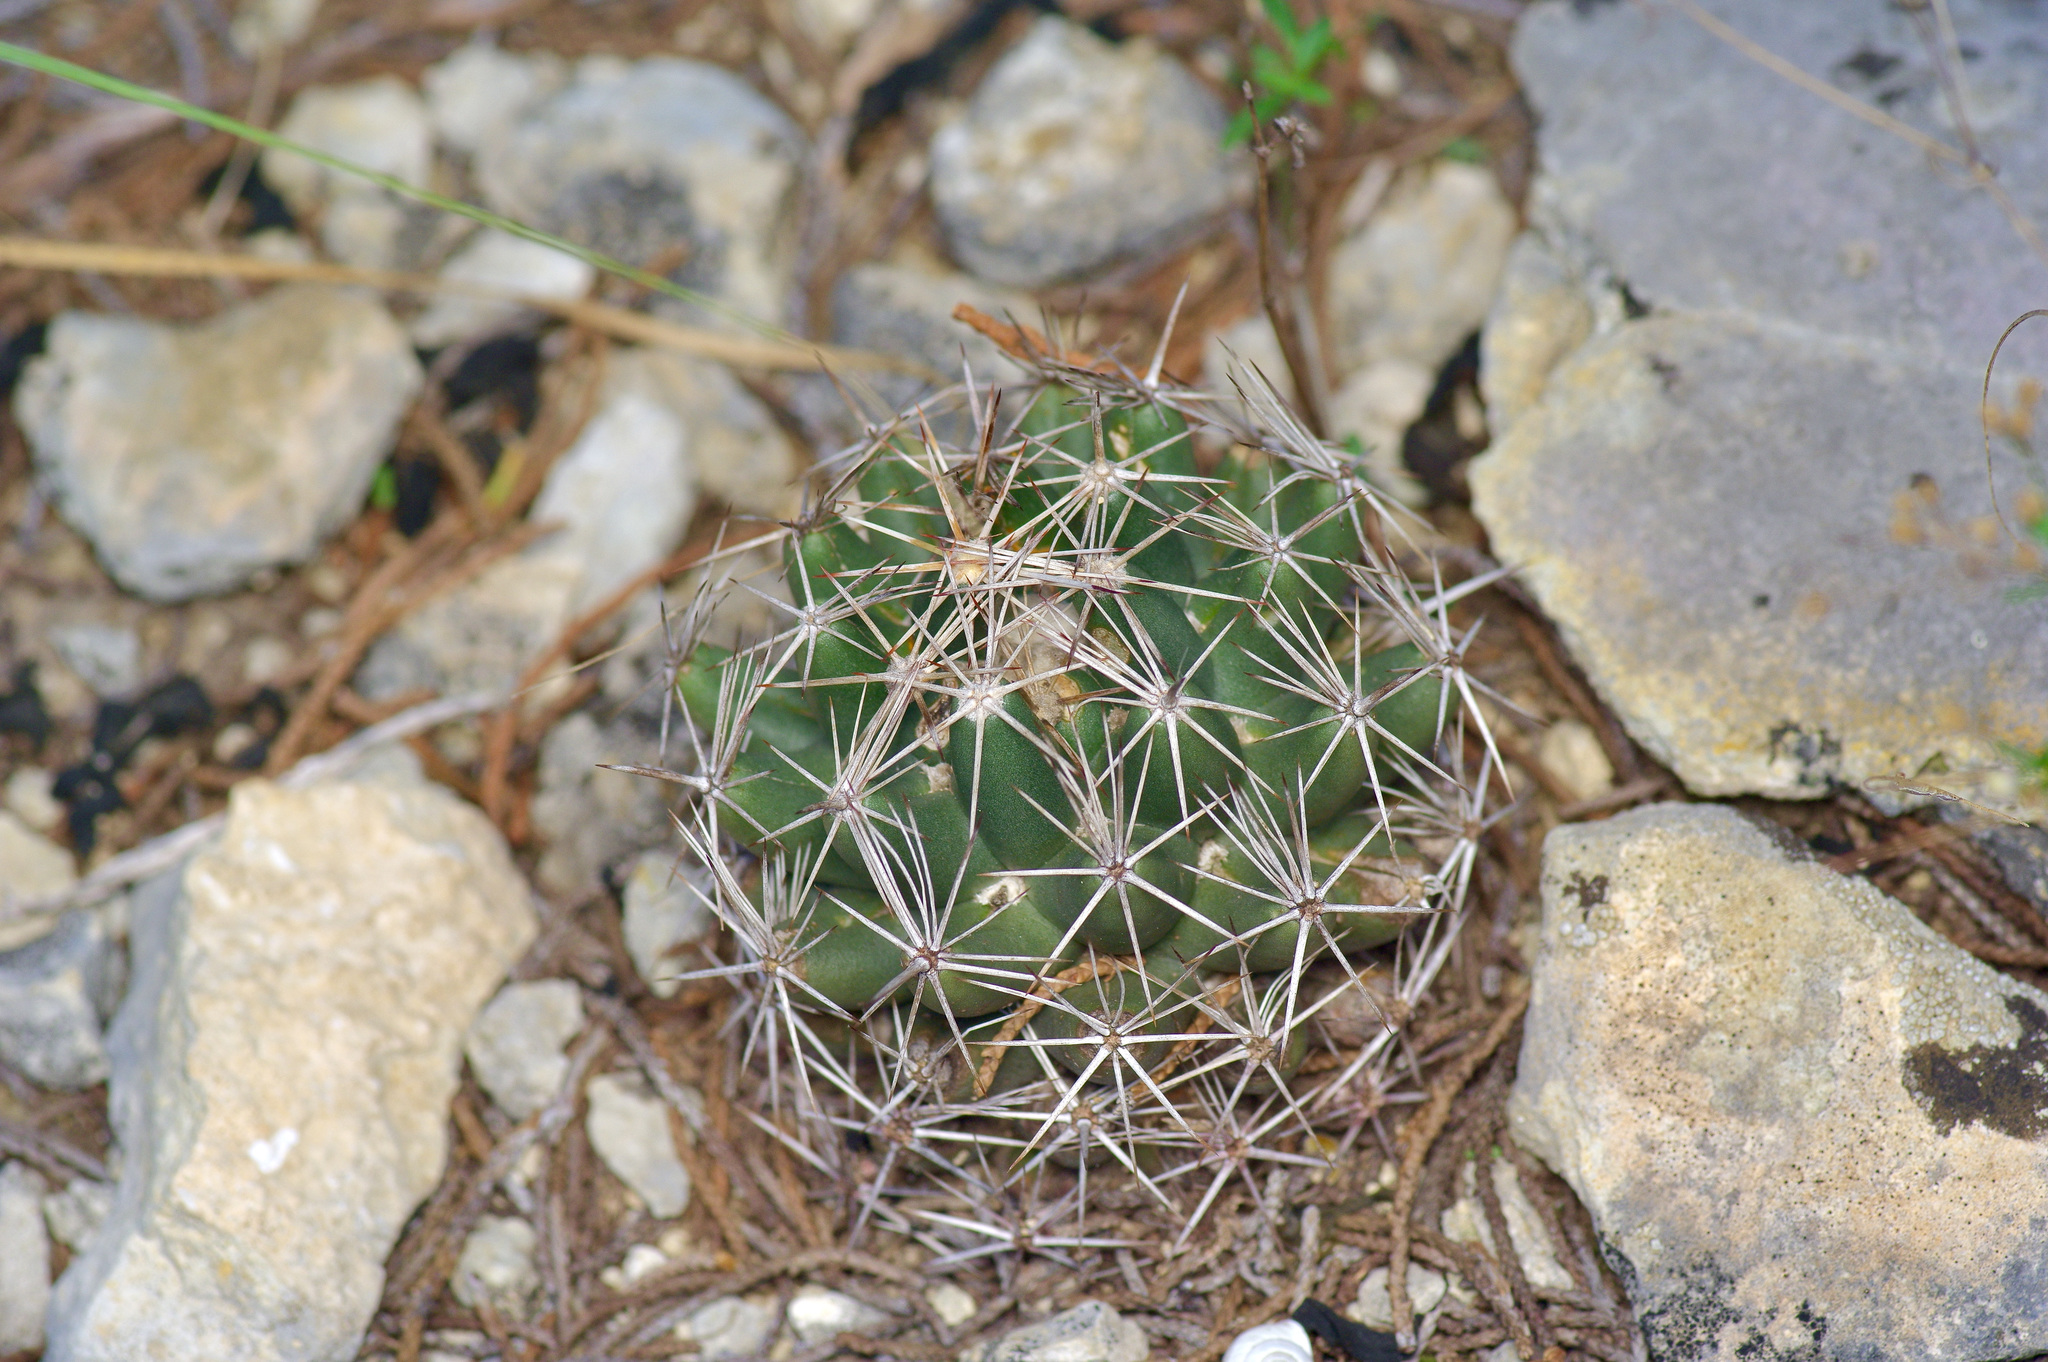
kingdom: Plantae
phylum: Tracheophyta
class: Magnoliopsida
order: Caryophyllales
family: Cactaceae
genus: Coryphantha
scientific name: Coryphantha sulcata
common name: Finger cactus
